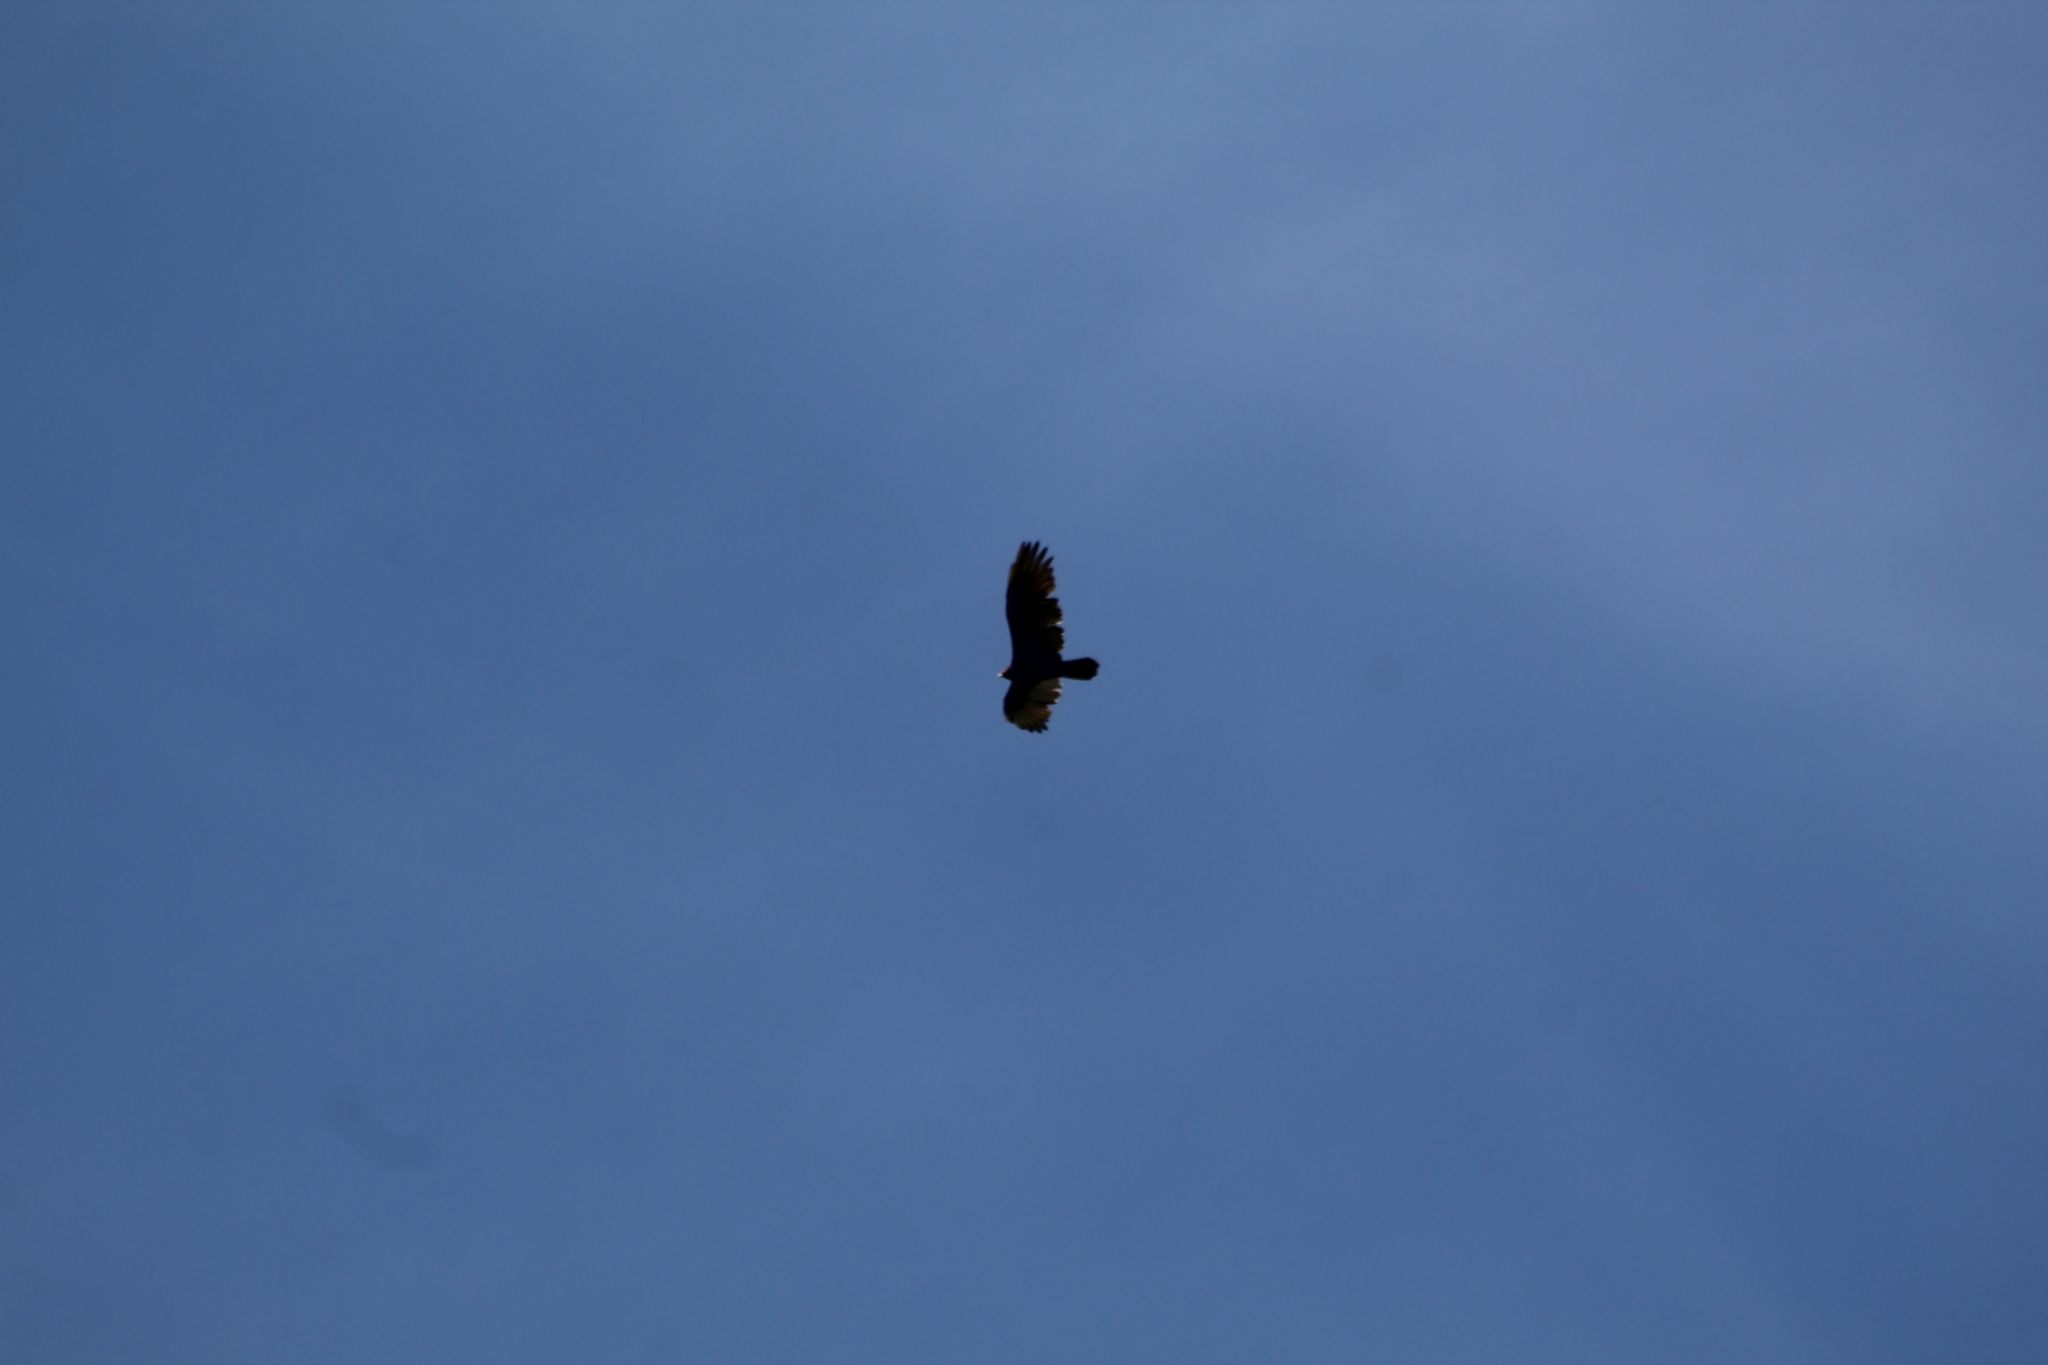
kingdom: Animalia
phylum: Chordata
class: Aves
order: Accipitriformes
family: Cathartidae
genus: Cathartes
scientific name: Cathartes aura
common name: Turkey vulture
